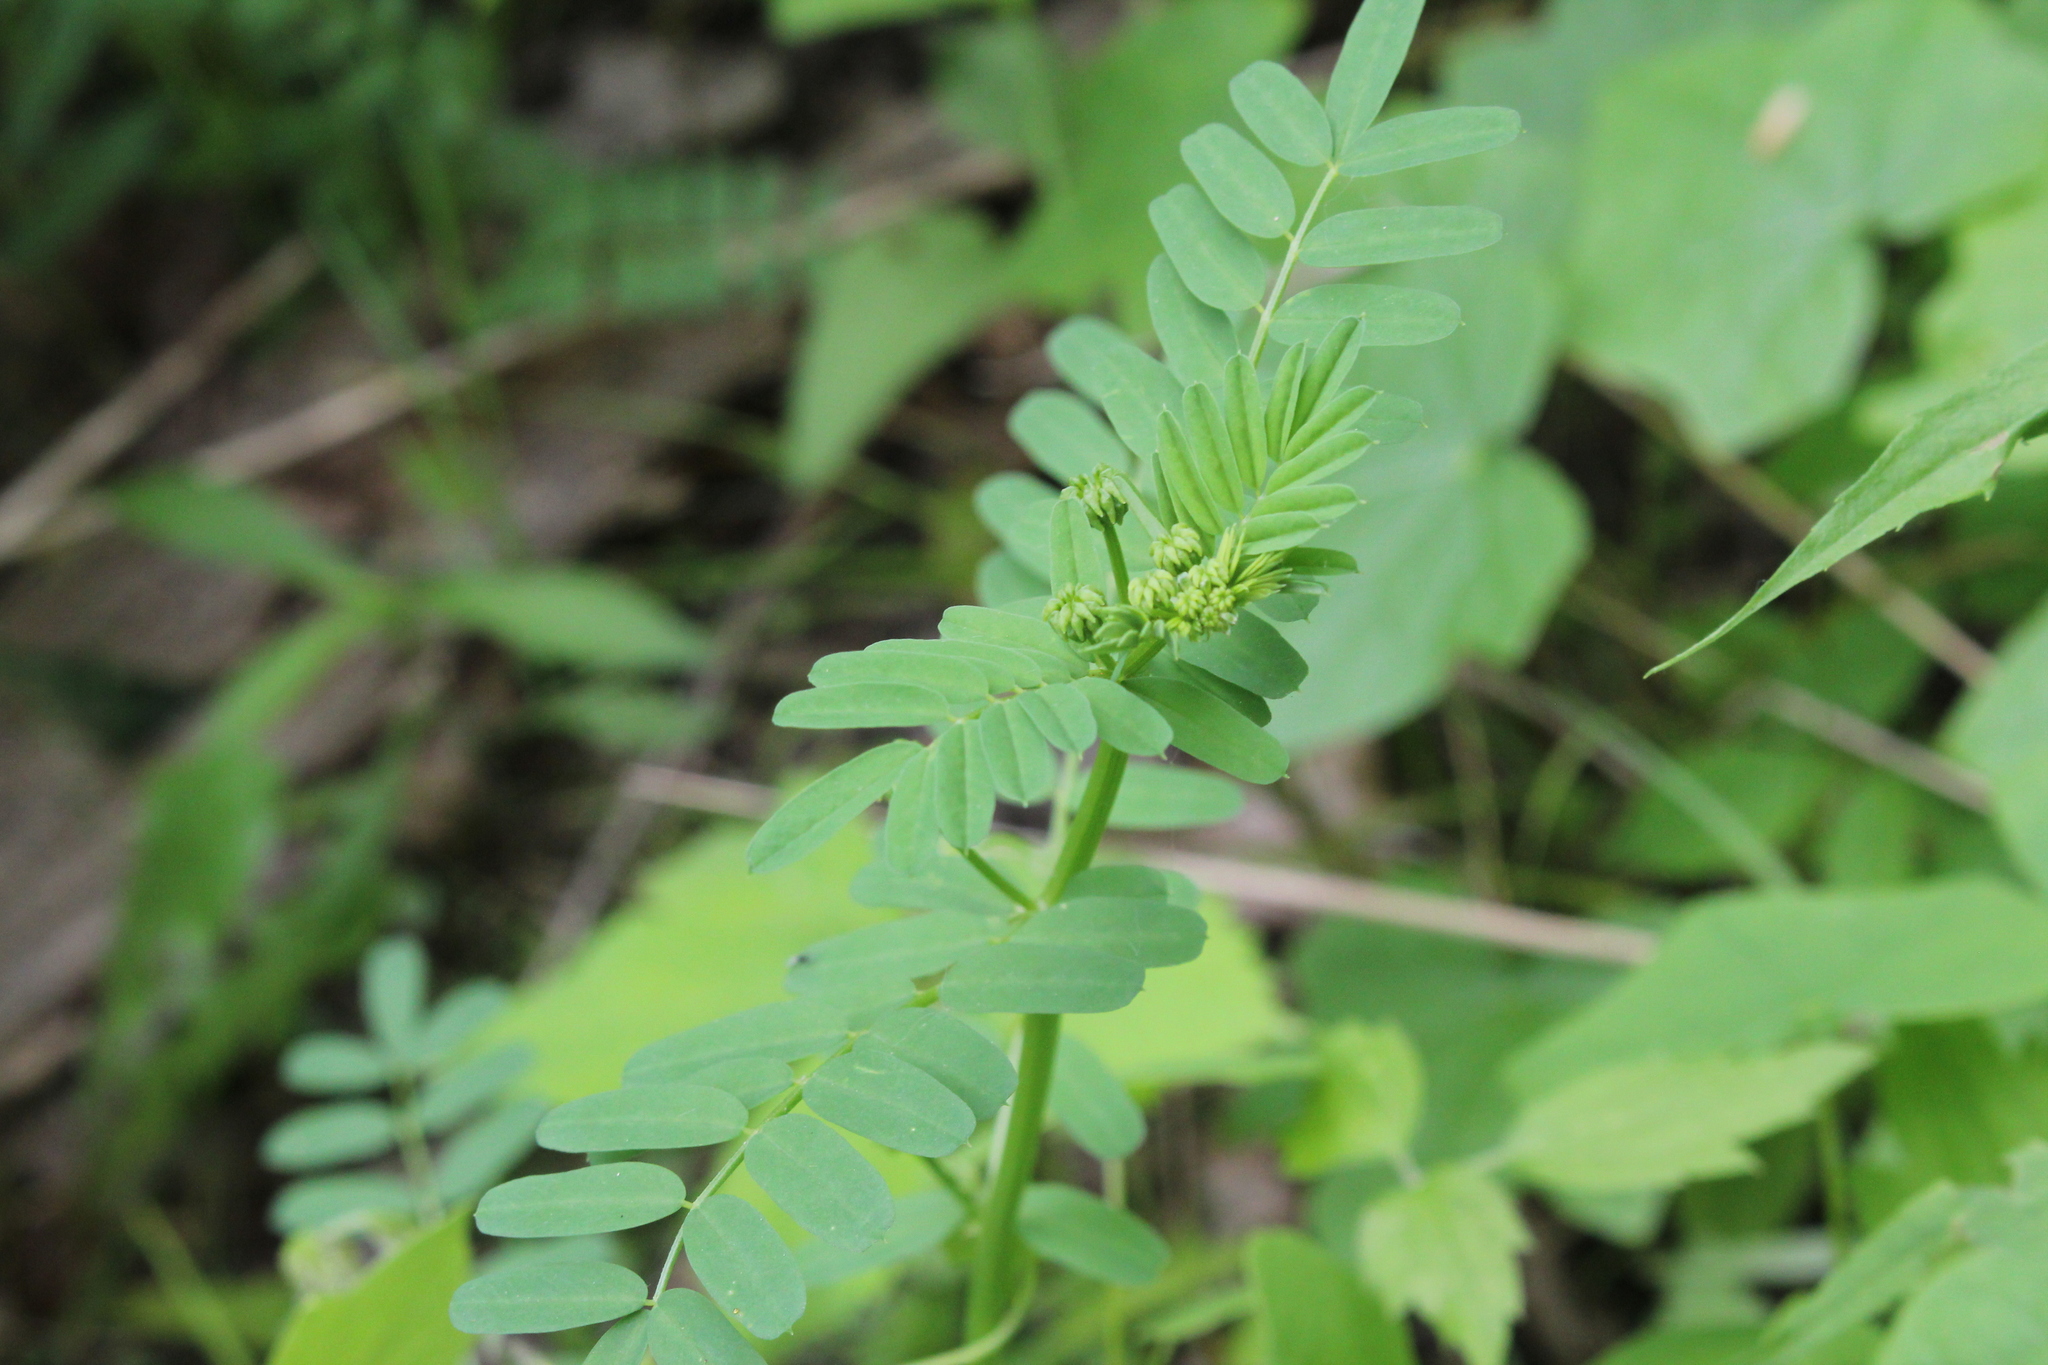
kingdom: Plantae
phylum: Tracheophyta
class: Magnoliopsida
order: Fabales
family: Fabaceae
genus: Coronilla
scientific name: Coronilla varia
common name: Crownvetch
